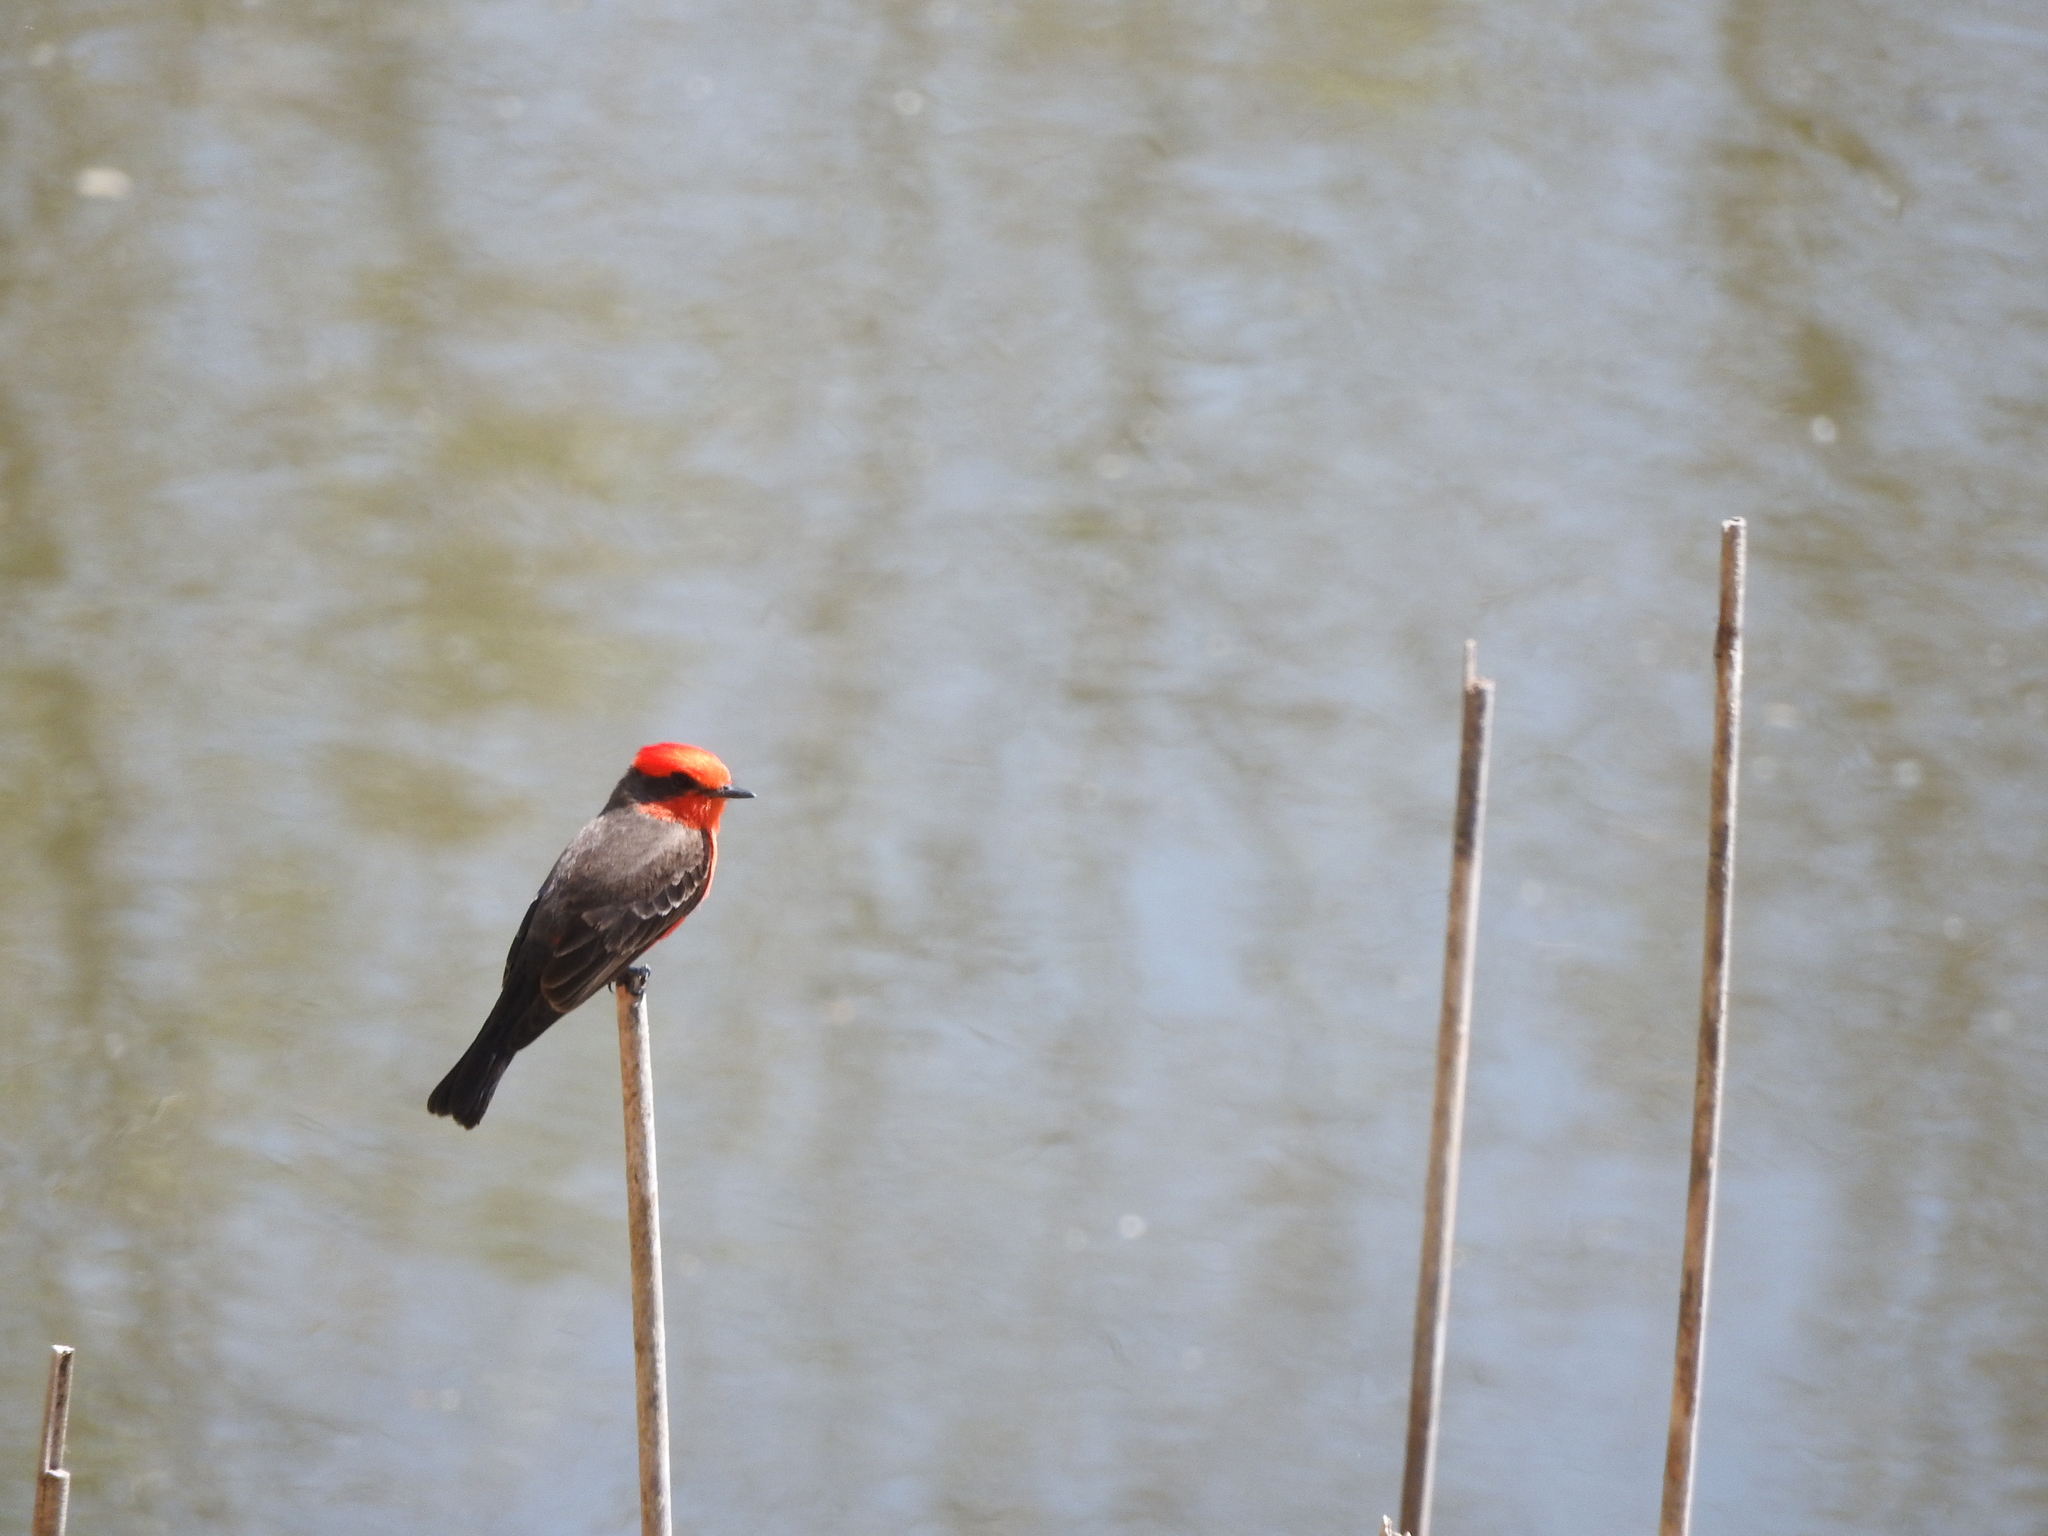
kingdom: Animalia
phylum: Chordata
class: Aves
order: Passeriformes
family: Tyrannidae
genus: Pyrocephalus
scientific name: Pyrocephalus rubinus
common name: Vermilion flycatcher
